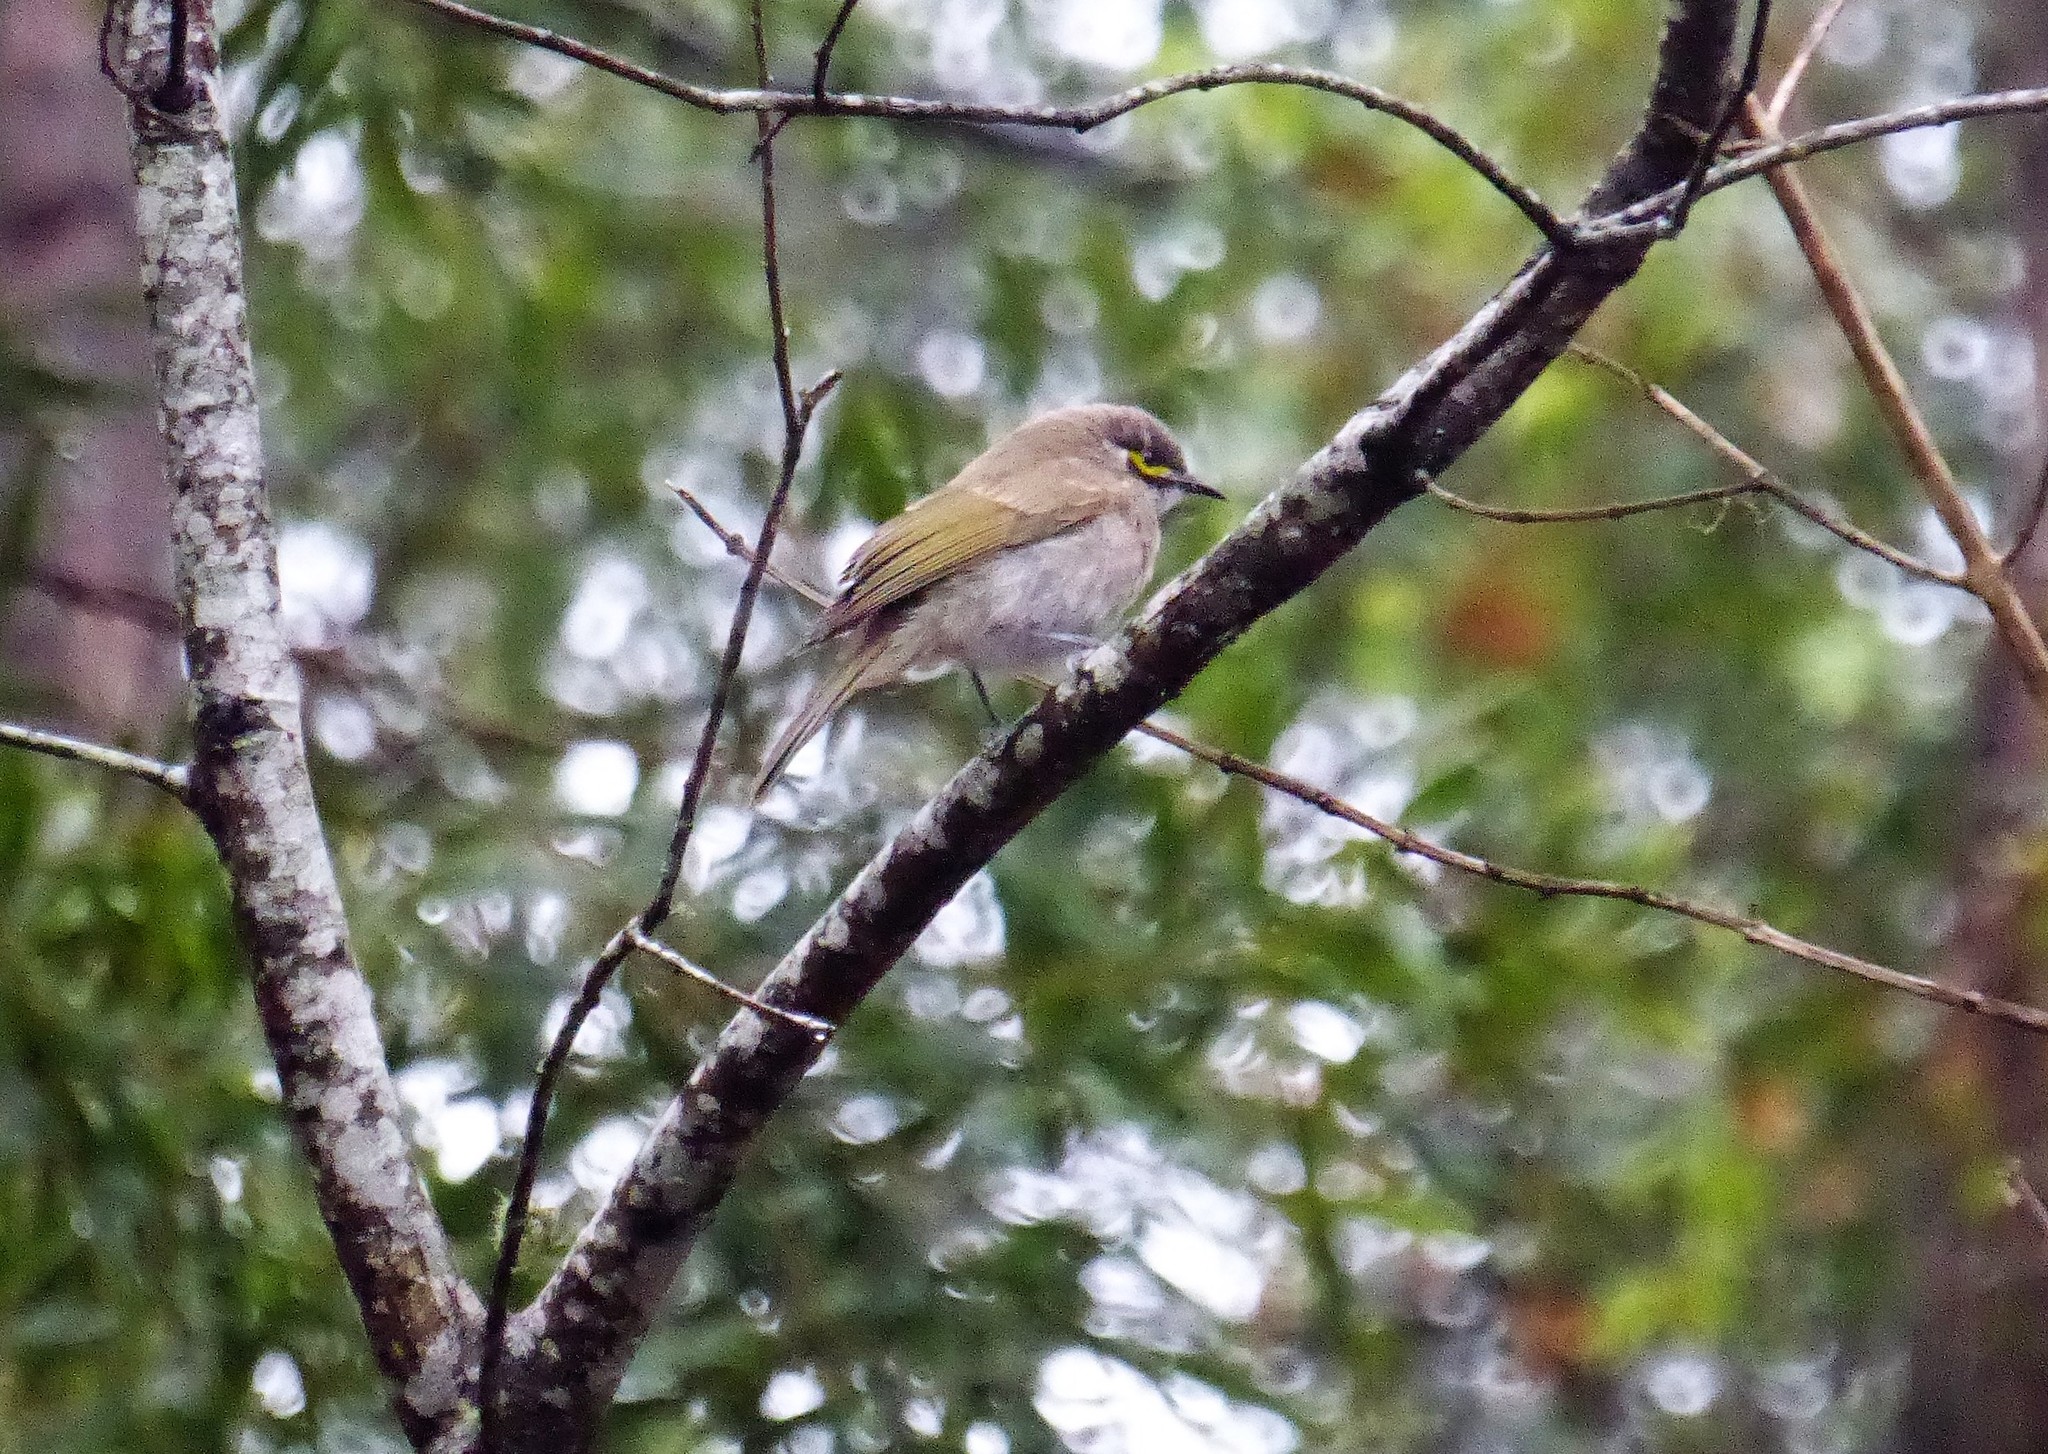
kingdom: Animalia
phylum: Chordata
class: Aves
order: Passeriformes
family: Meliphagidae
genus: Caligavis
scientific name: Caligavis chrysops
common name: Yellow-faced honeyeater
